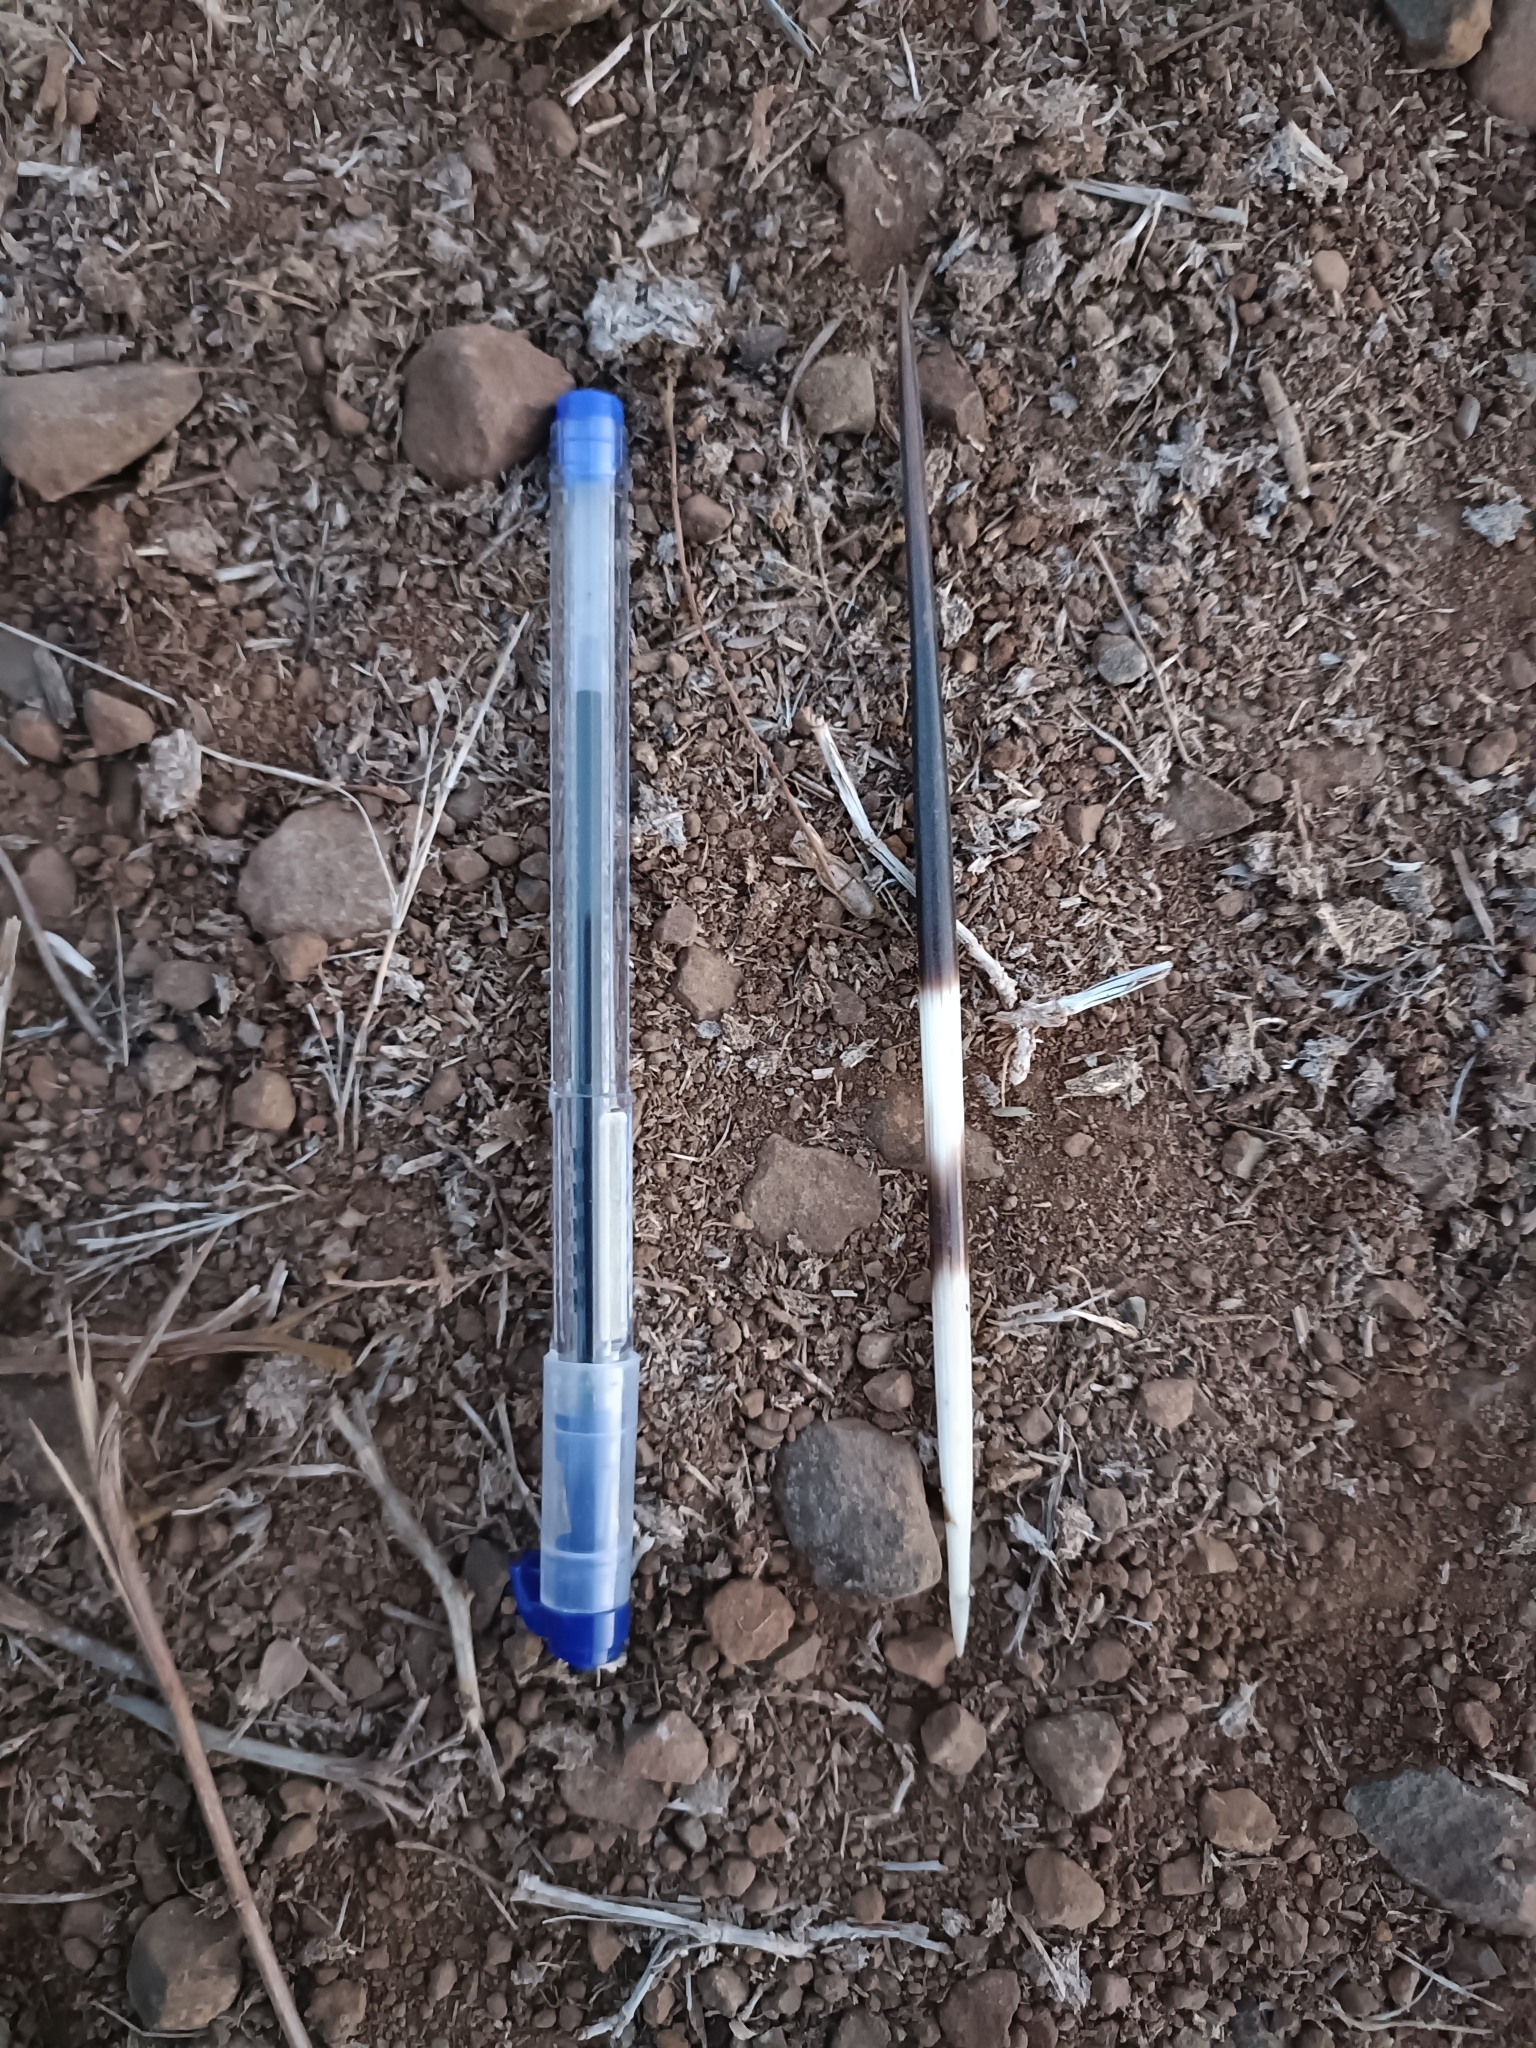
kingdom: Animalia
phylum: Chordata
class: Mammalia
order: Rodentia
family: Hystricidae
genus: Hystrix
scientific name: Hystrix indica
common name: Indian crested porcupine
